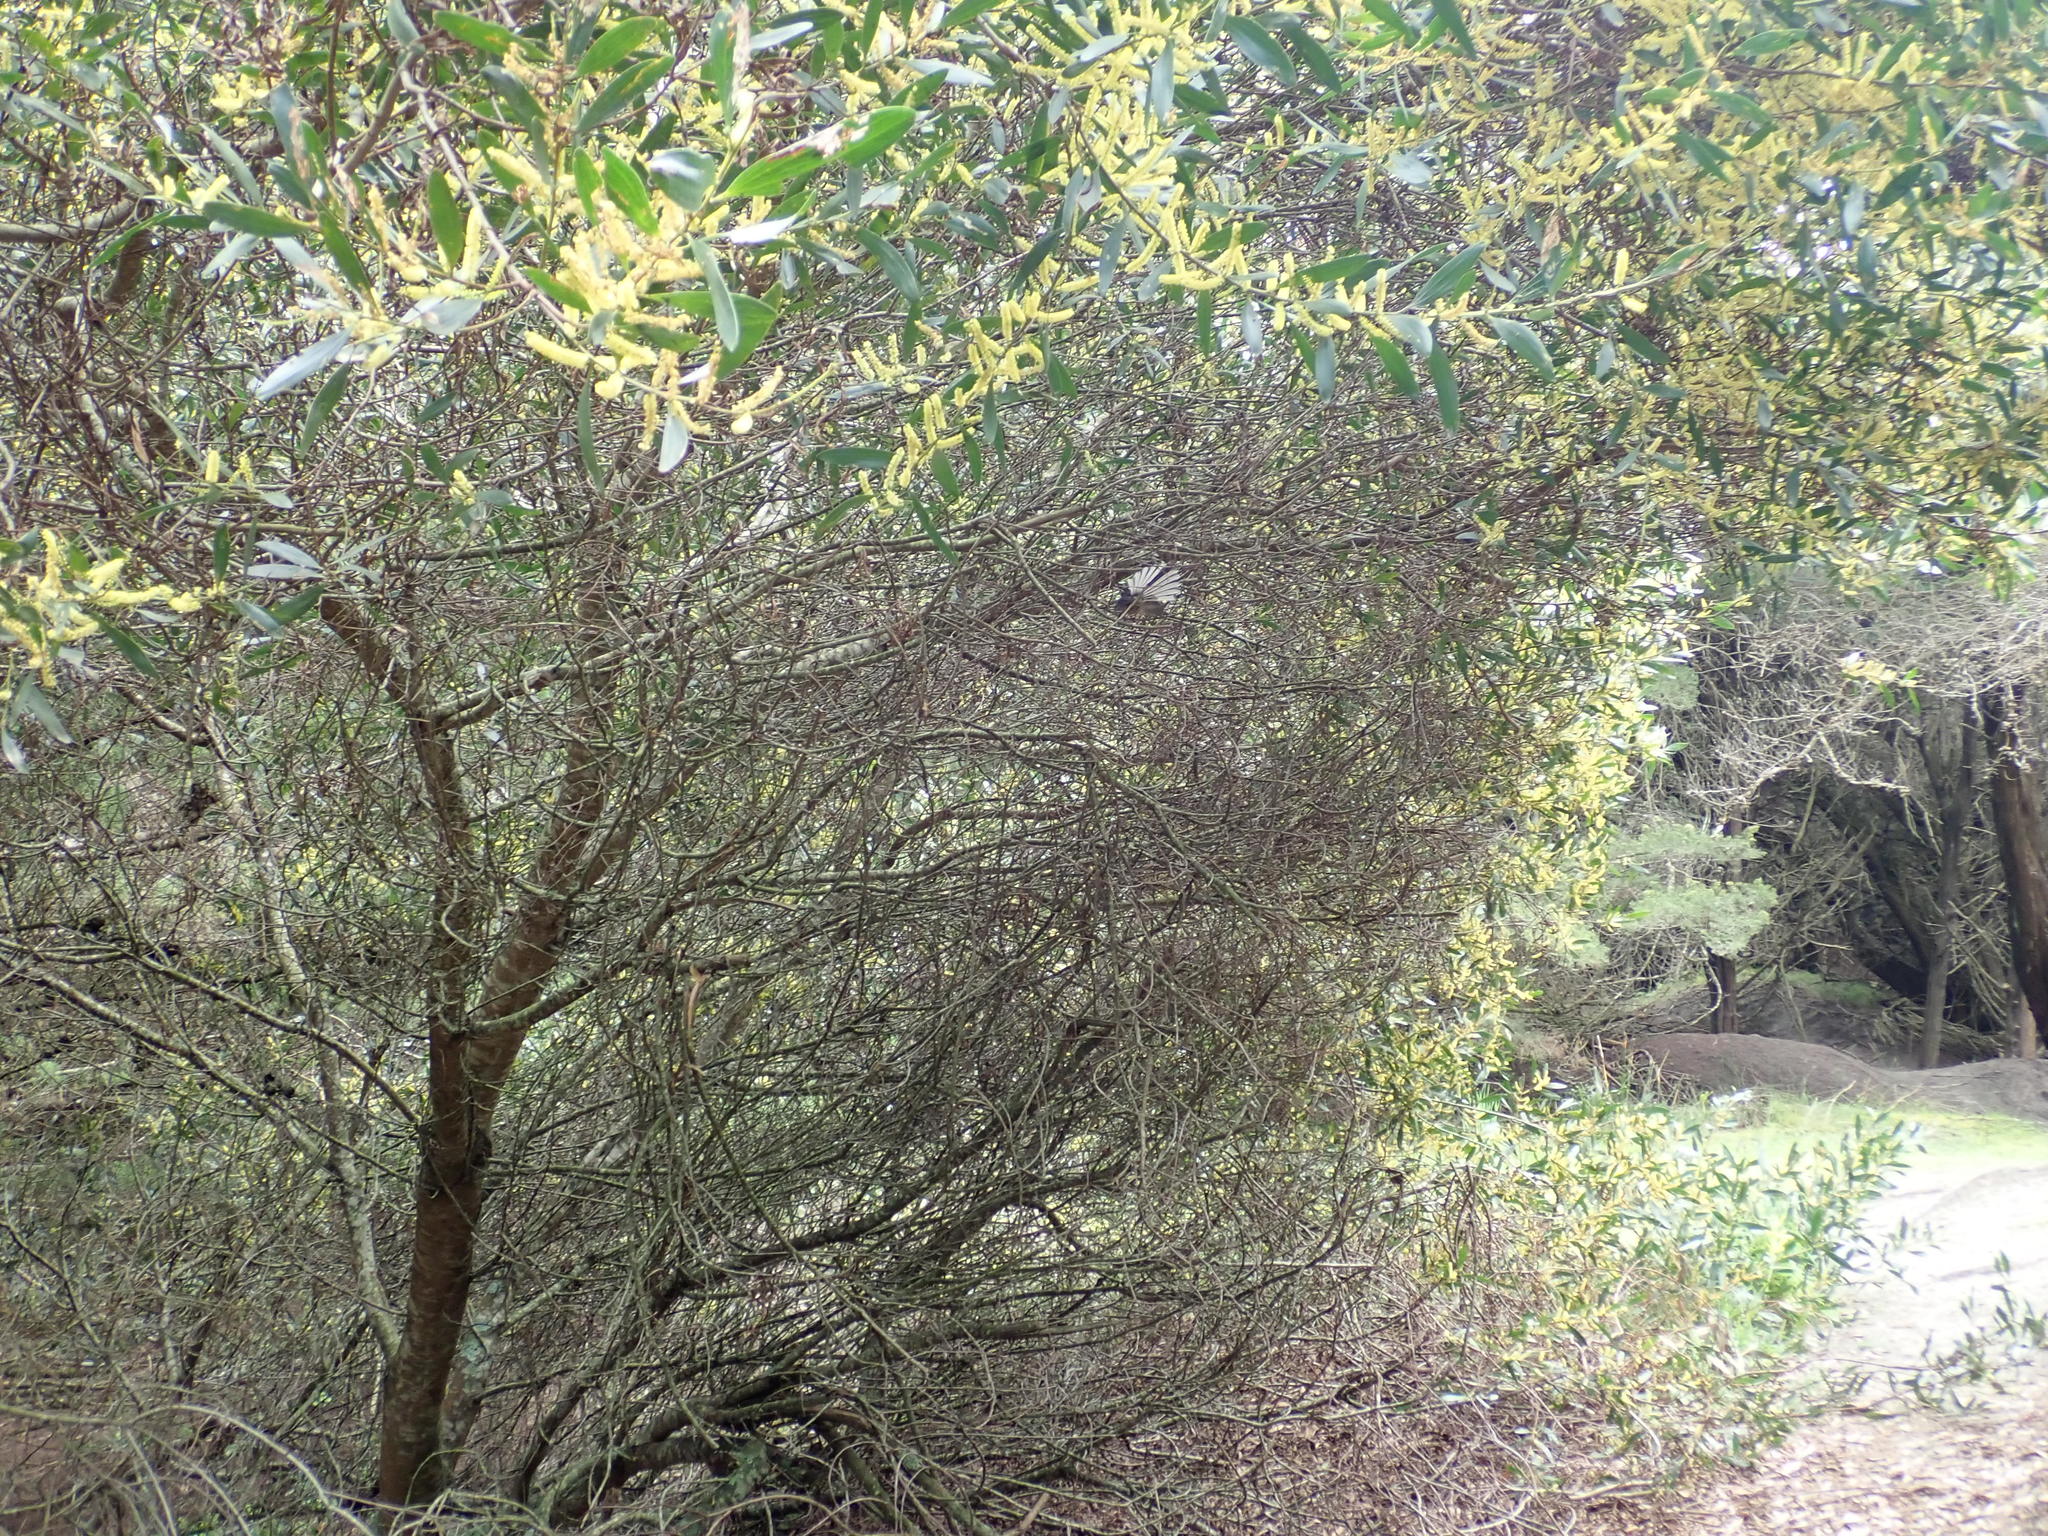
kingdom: Animalia
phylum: Chordata
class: Aves
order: Passeriformes
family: Rhipiduridae
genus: Rhipidura
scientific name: Rhipidura fuliginosa
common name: New zealand fantail
